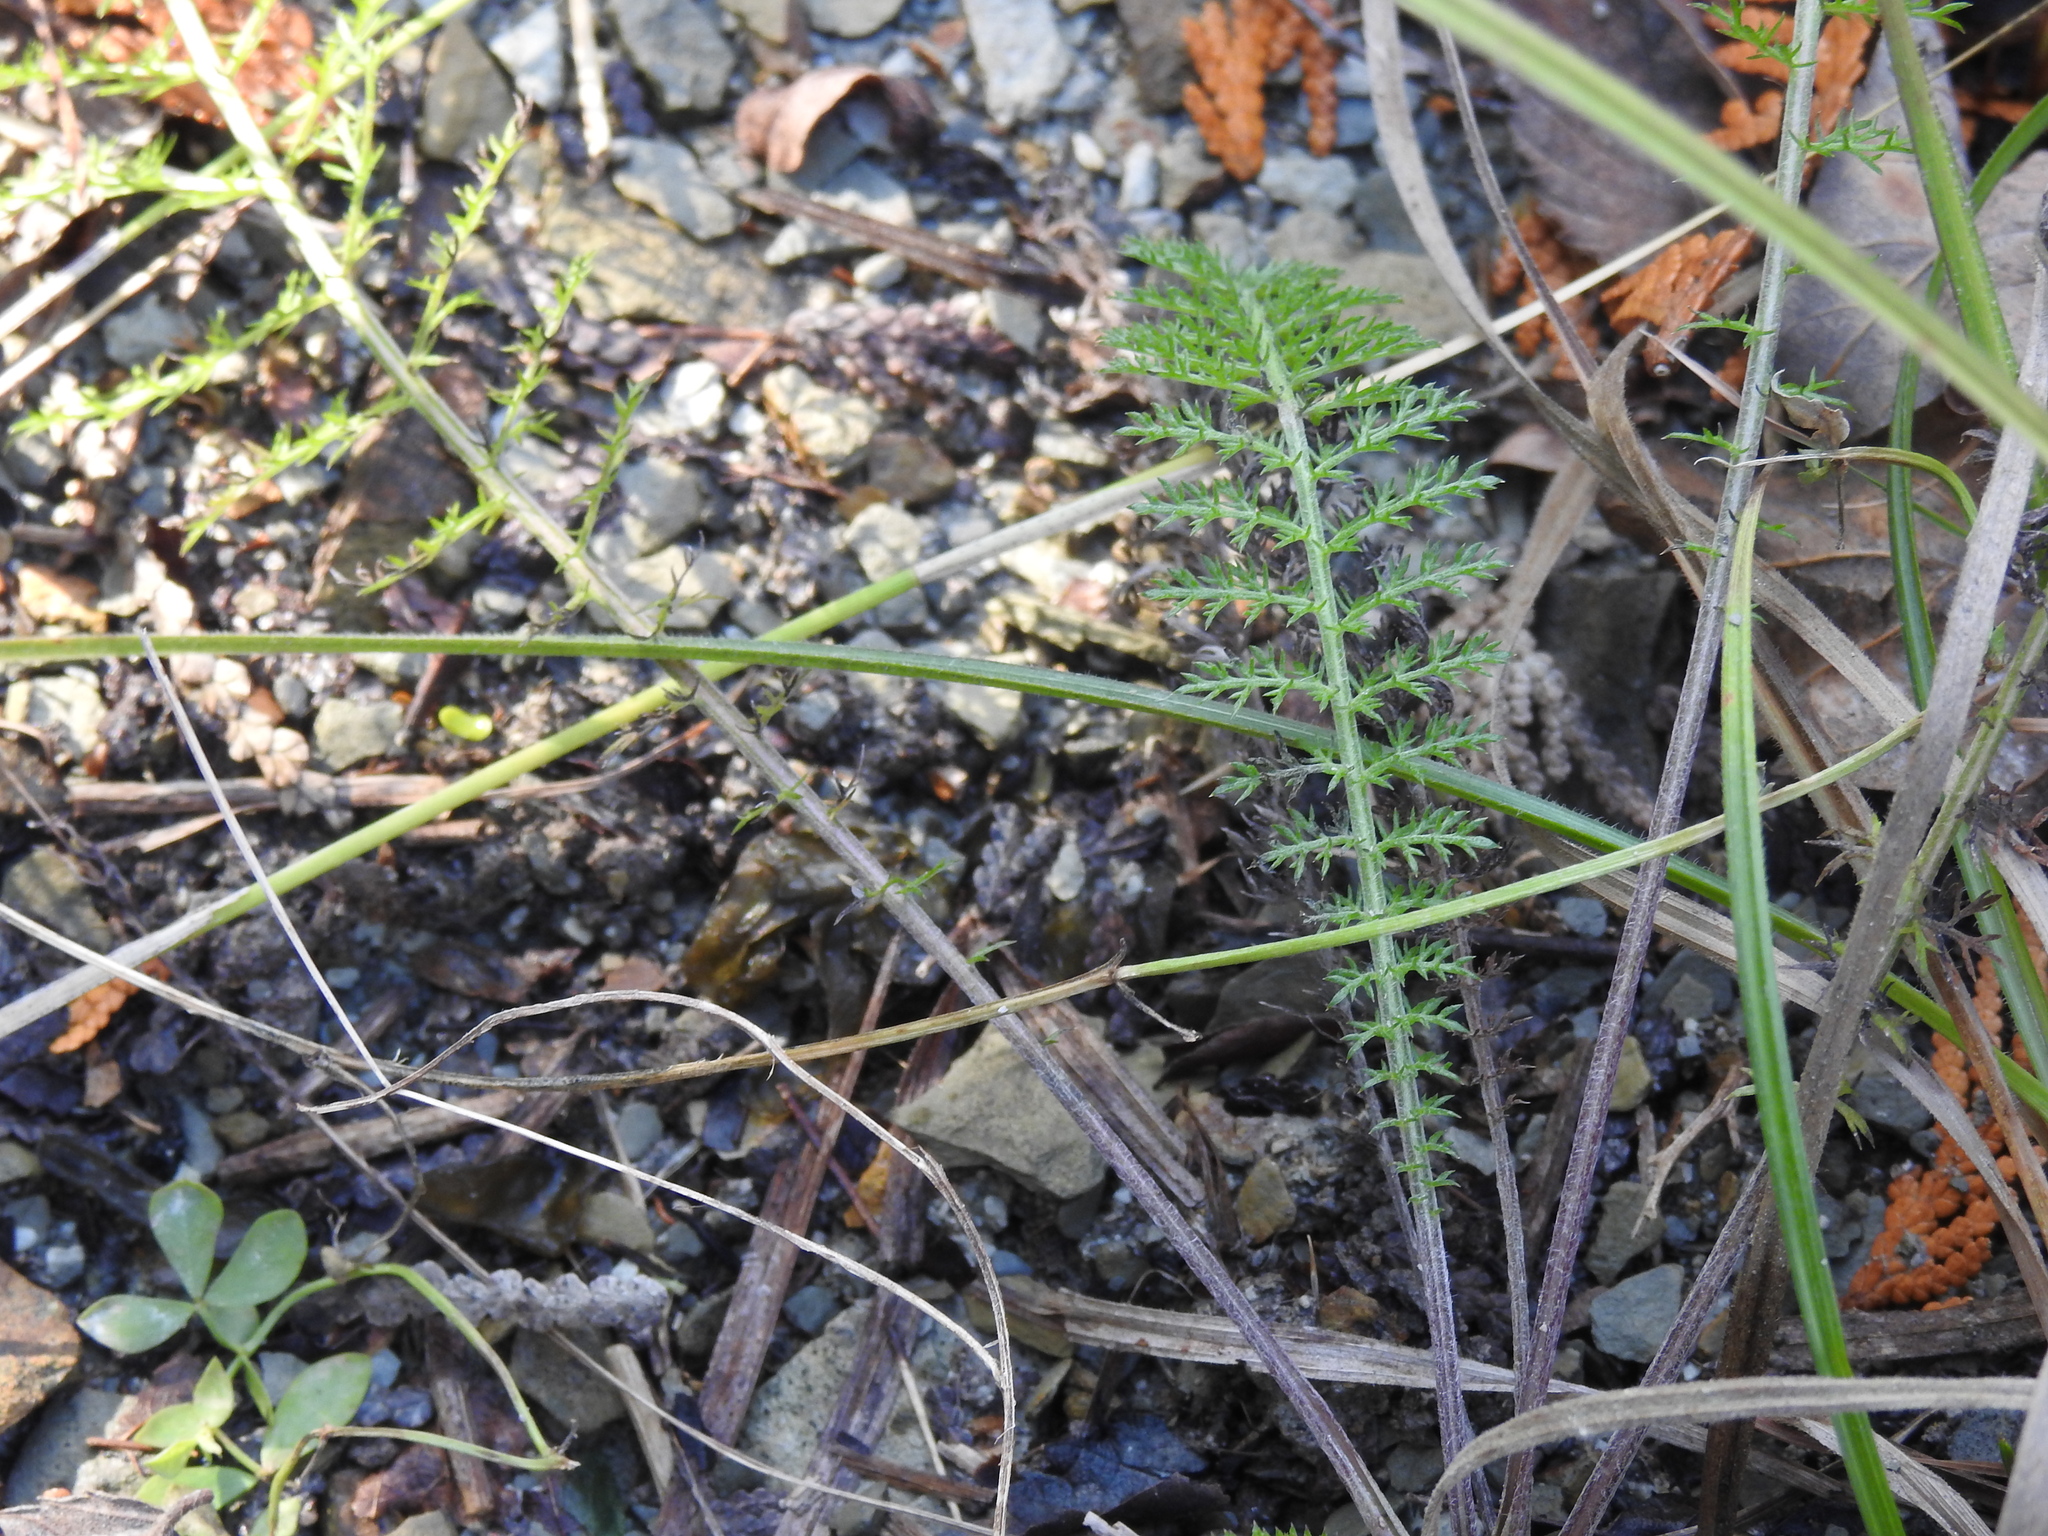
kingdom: Plantae
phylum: Tracheophyta
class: Magnoliopsida
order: Asterales
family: Asteraceae
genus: Achillea
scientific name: Achillea millefolium
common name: Yarrow
